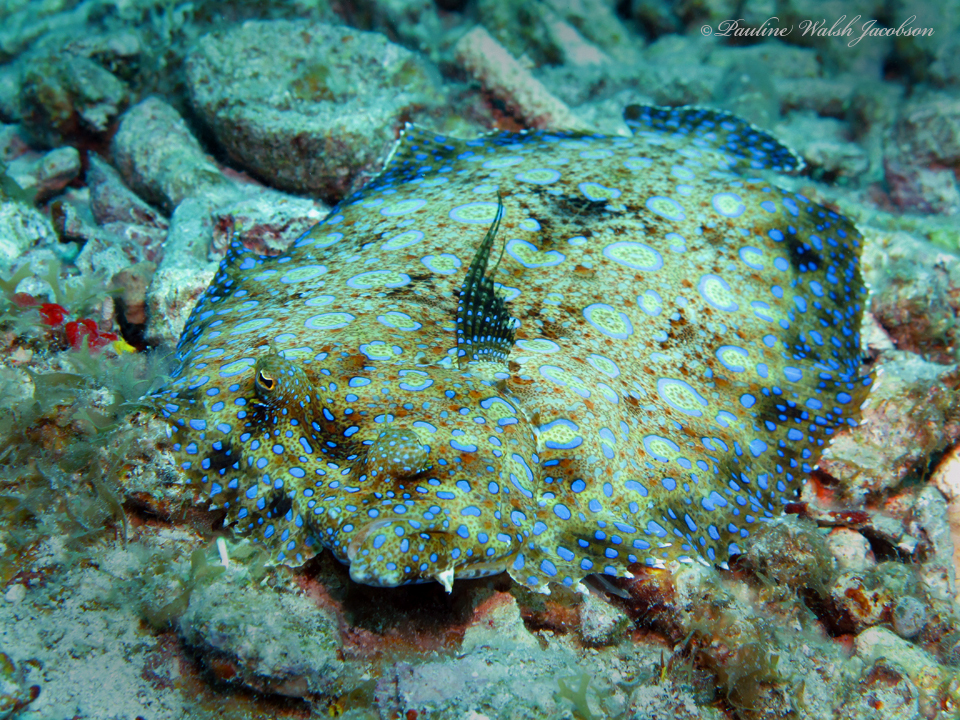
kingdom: Animalia
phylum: Chordata
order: Pleuronectiformes
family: Bothidae
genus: Bothus
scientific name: Bothus lunatus
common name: Peacock flounder
